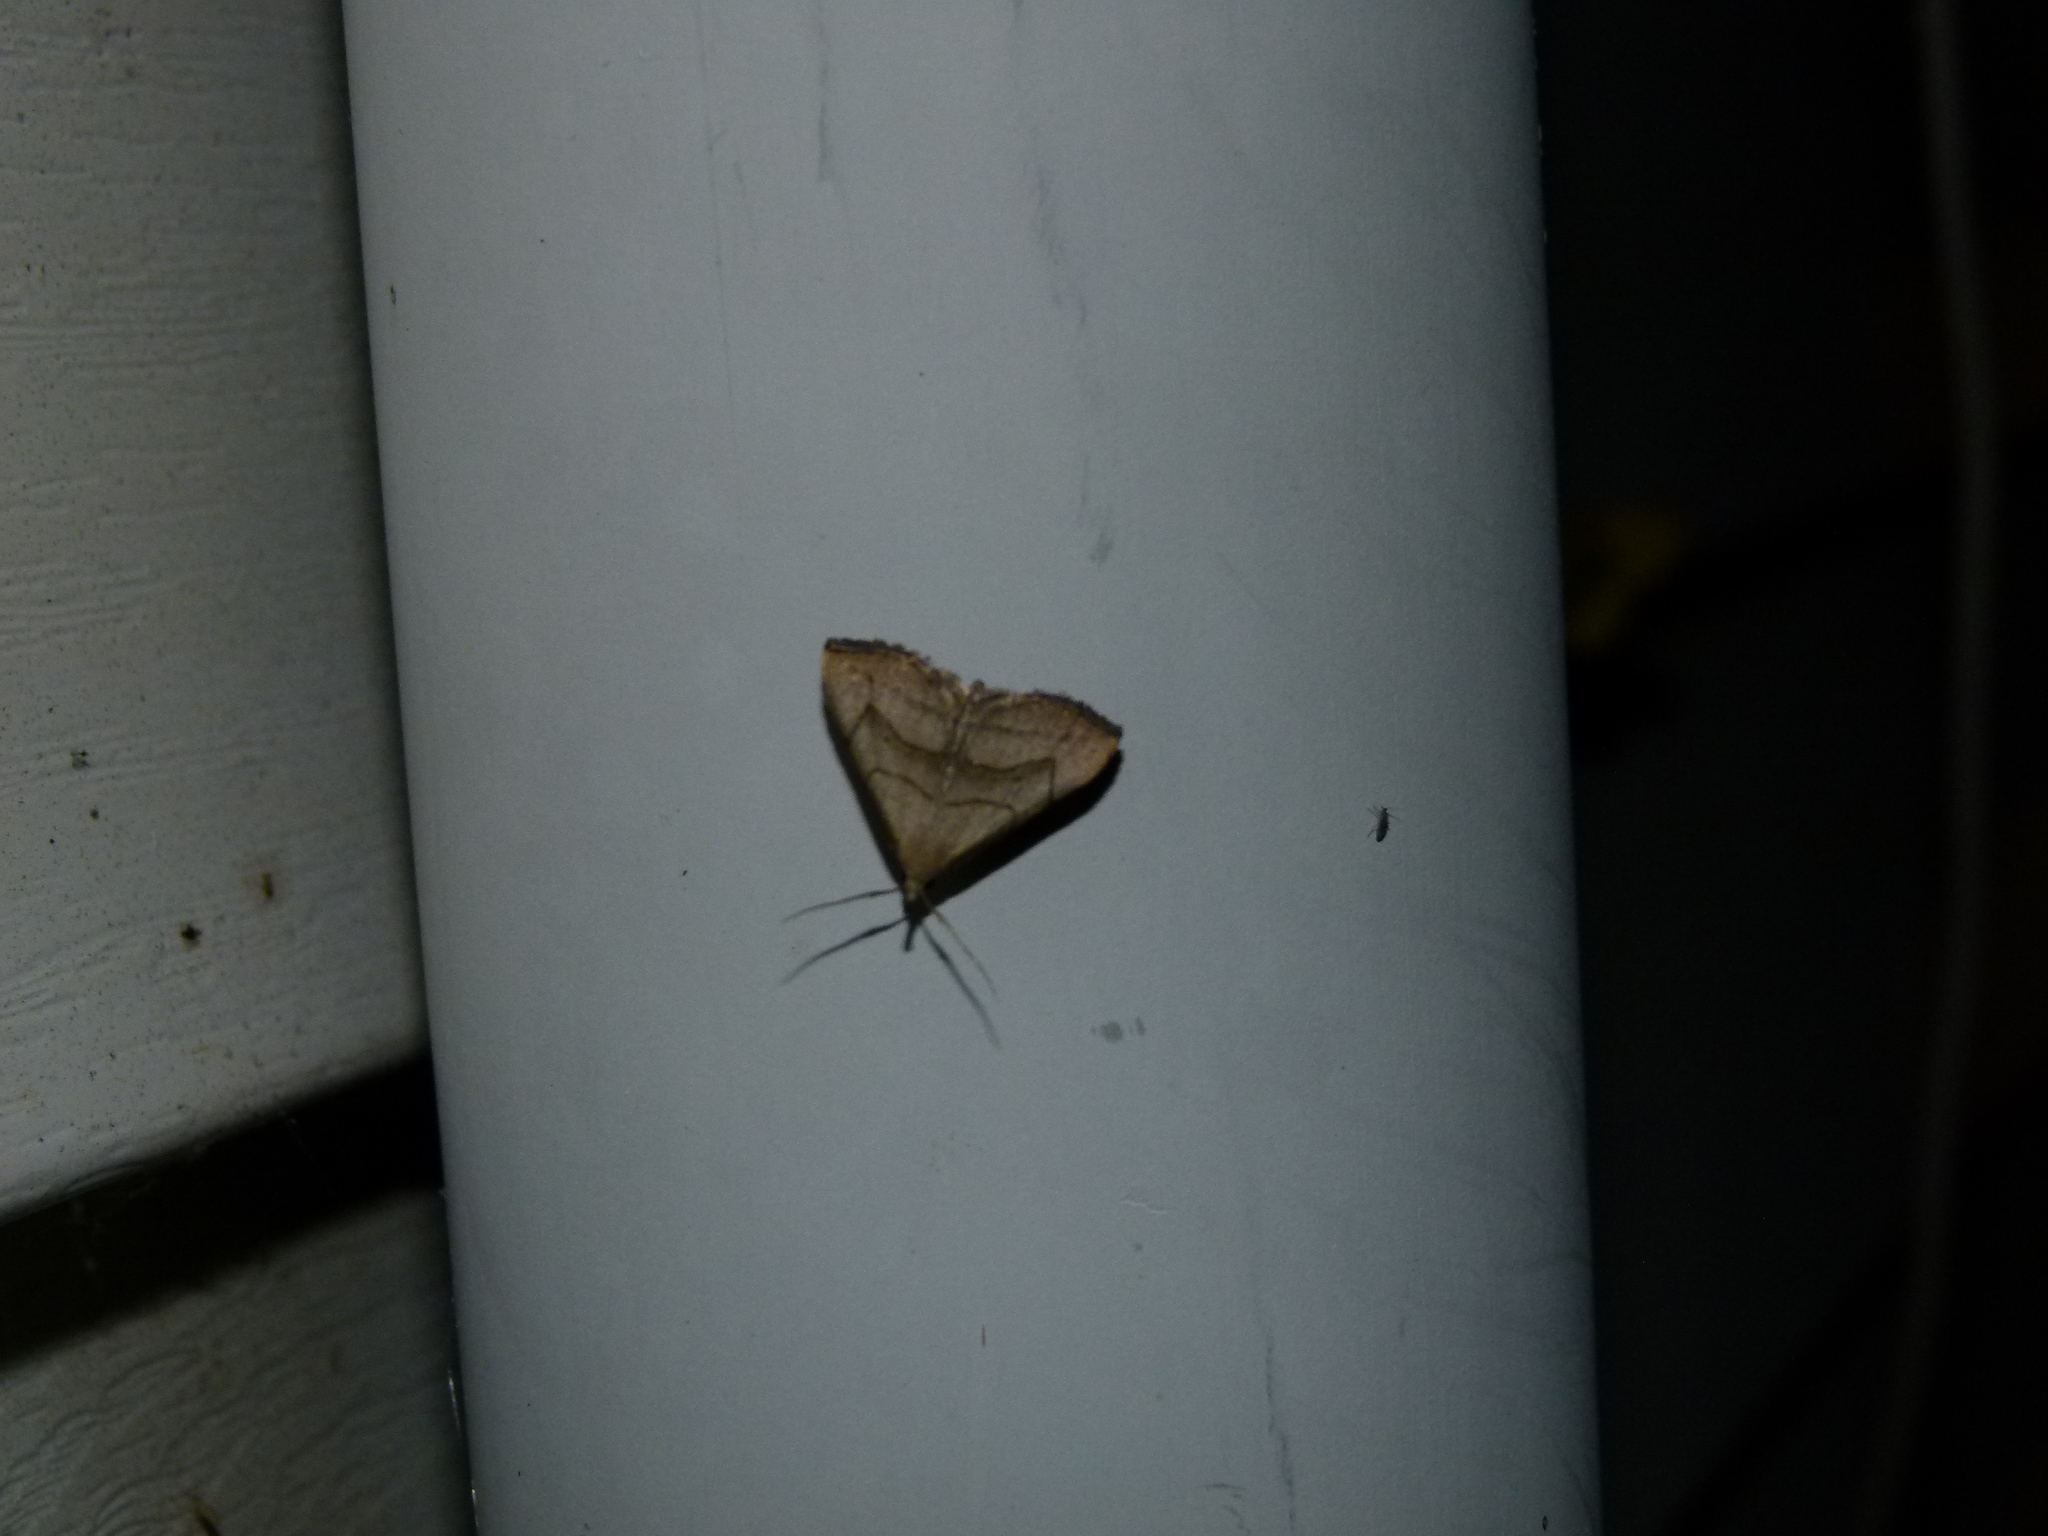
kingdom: Animalia
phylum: Arthropoda
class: Insecta
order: Lepidoptera
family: Erebidae
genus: Macrochilo
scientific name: Macrochilo litophora
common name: Brown-lined owlet
